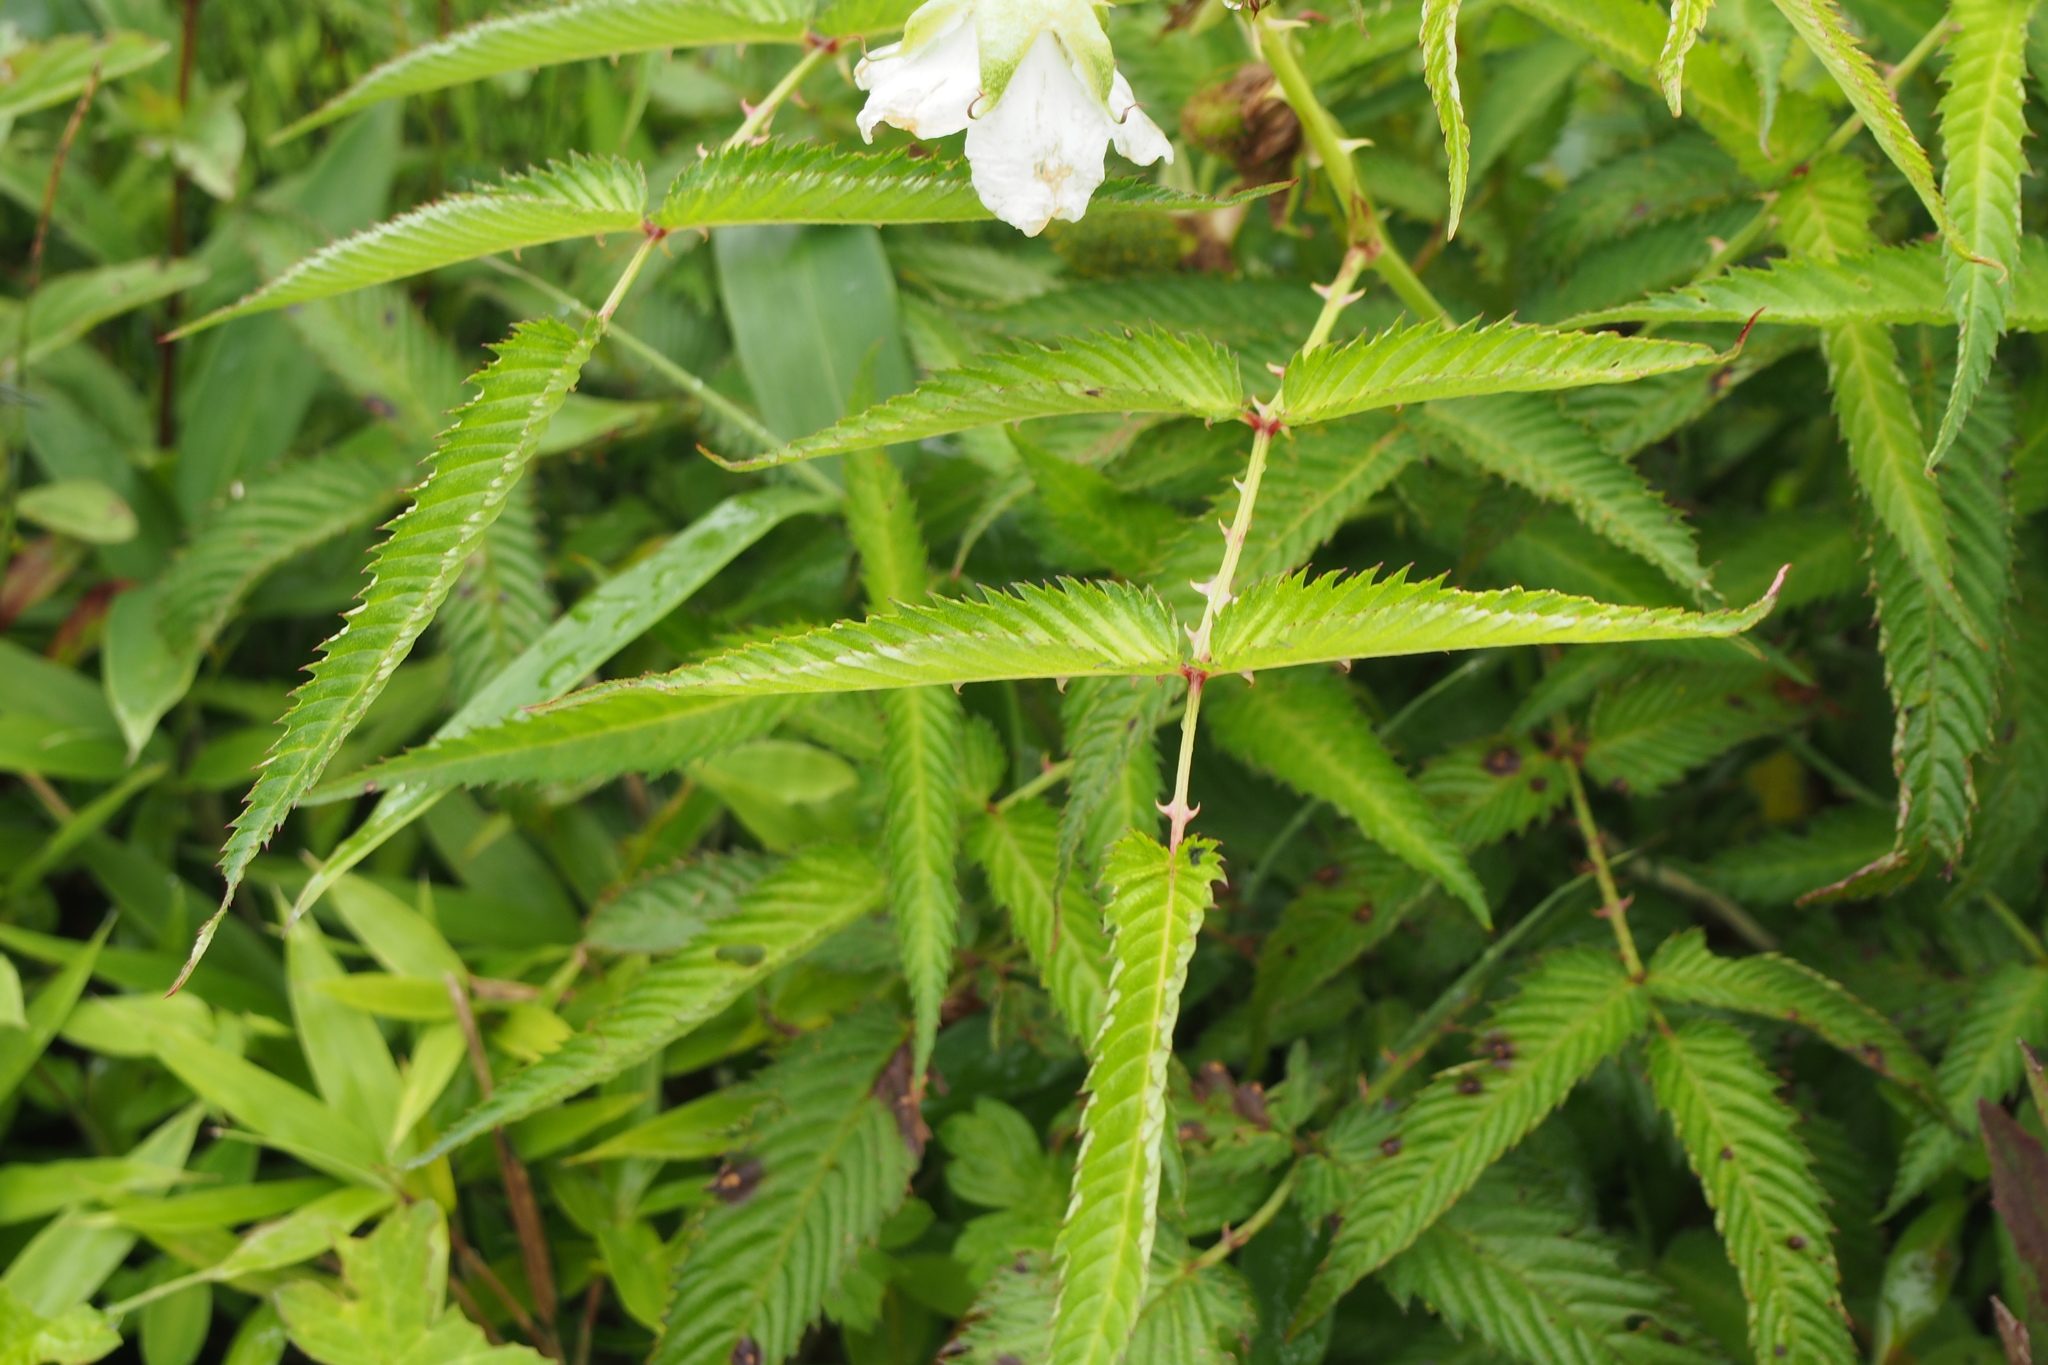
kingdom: Plantae
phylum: Tracheophyta
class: Magnoliopsida
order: Rosales
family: Rosaceae
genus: Rubus
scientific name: Rubus illecebrosus
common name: Strawberry raspberry
